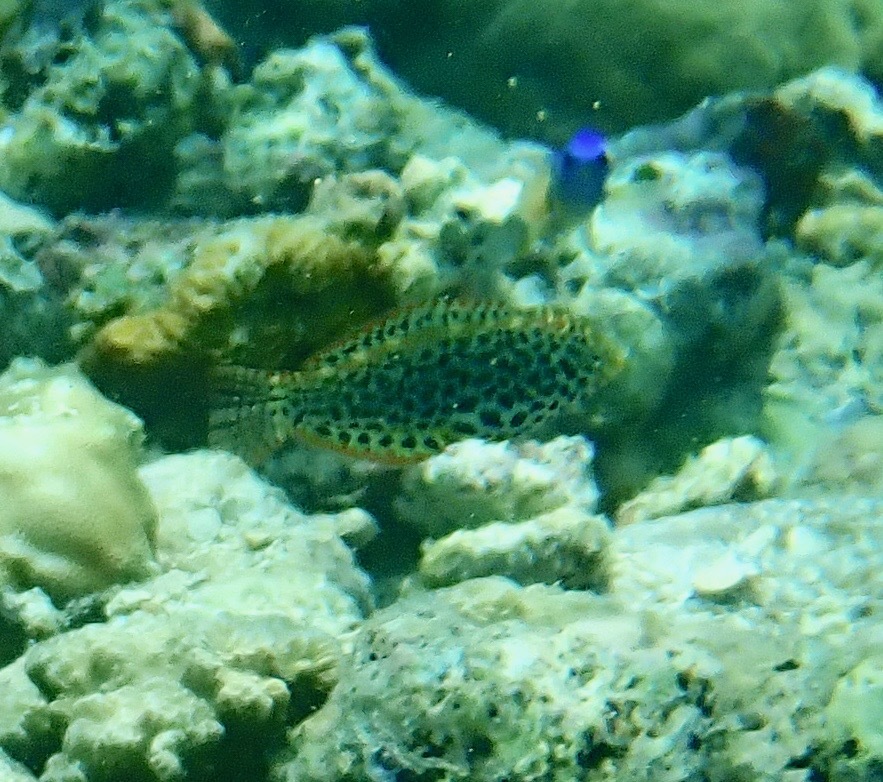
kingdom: Animalia
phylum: Chordata
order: Perciformes
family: Labridae
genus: Macropharyngodon
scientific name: Macropharyngodon meleagris
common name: Leopard wrasse
